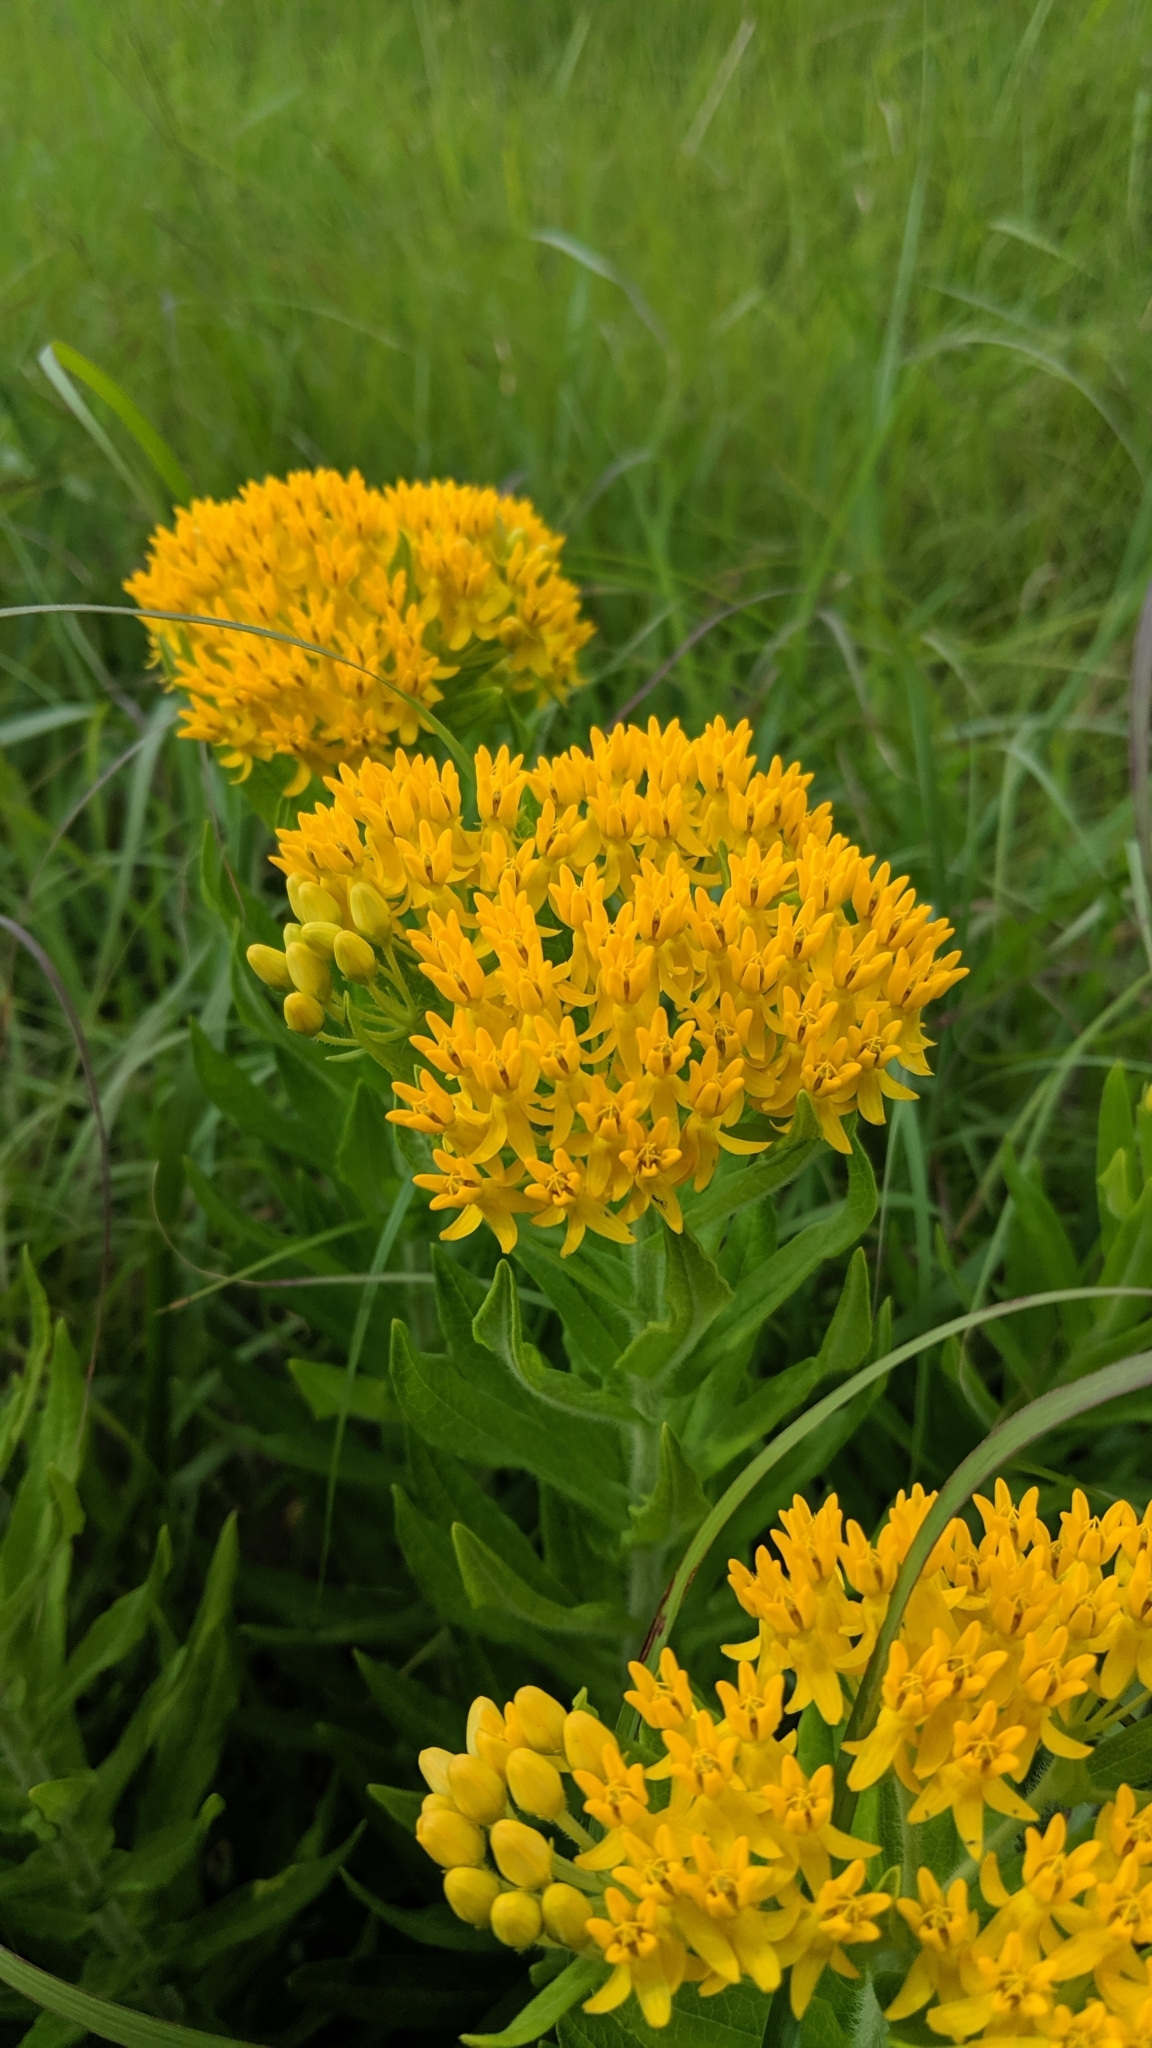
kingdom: Plantae
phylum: Tracheophyta
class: Magnoliopsida
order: Gentianales
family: Apocynaceae
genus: Asclepias
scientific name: Asclepias tuberosa
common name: Butterfly milkweed
